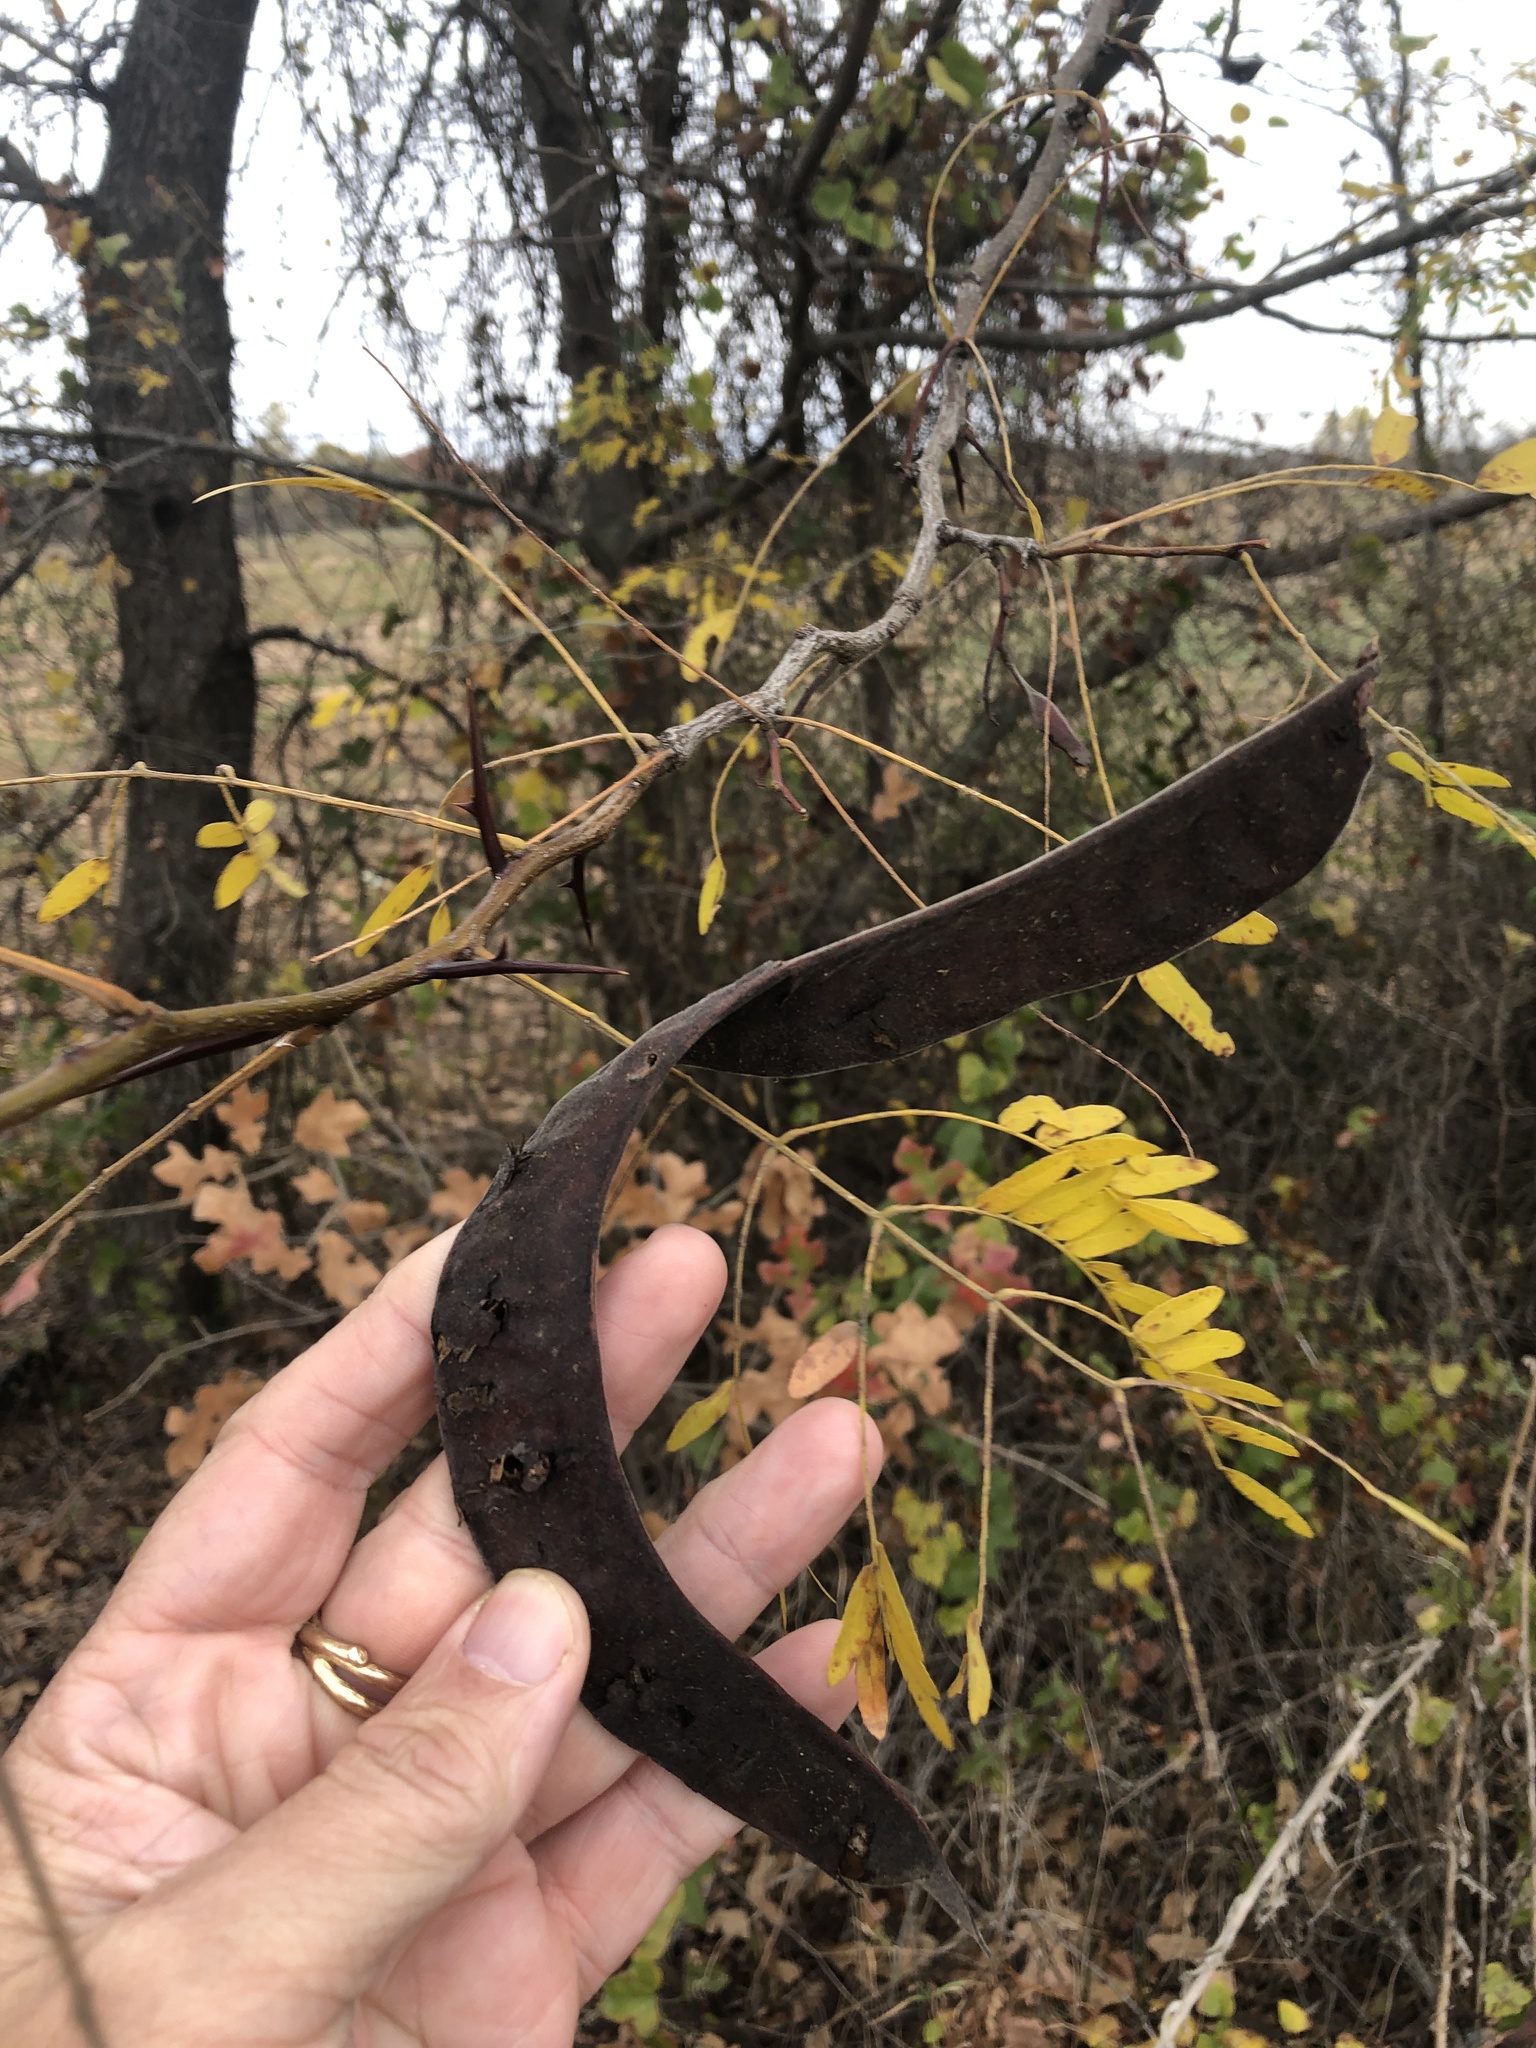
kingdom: Plantae
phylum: Tracheophyta
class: Magnoliopsida
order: Fabales
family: Fabaceae
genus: Gleditsia
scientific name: Gleditsia triacanthos
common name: Common honeylocust
